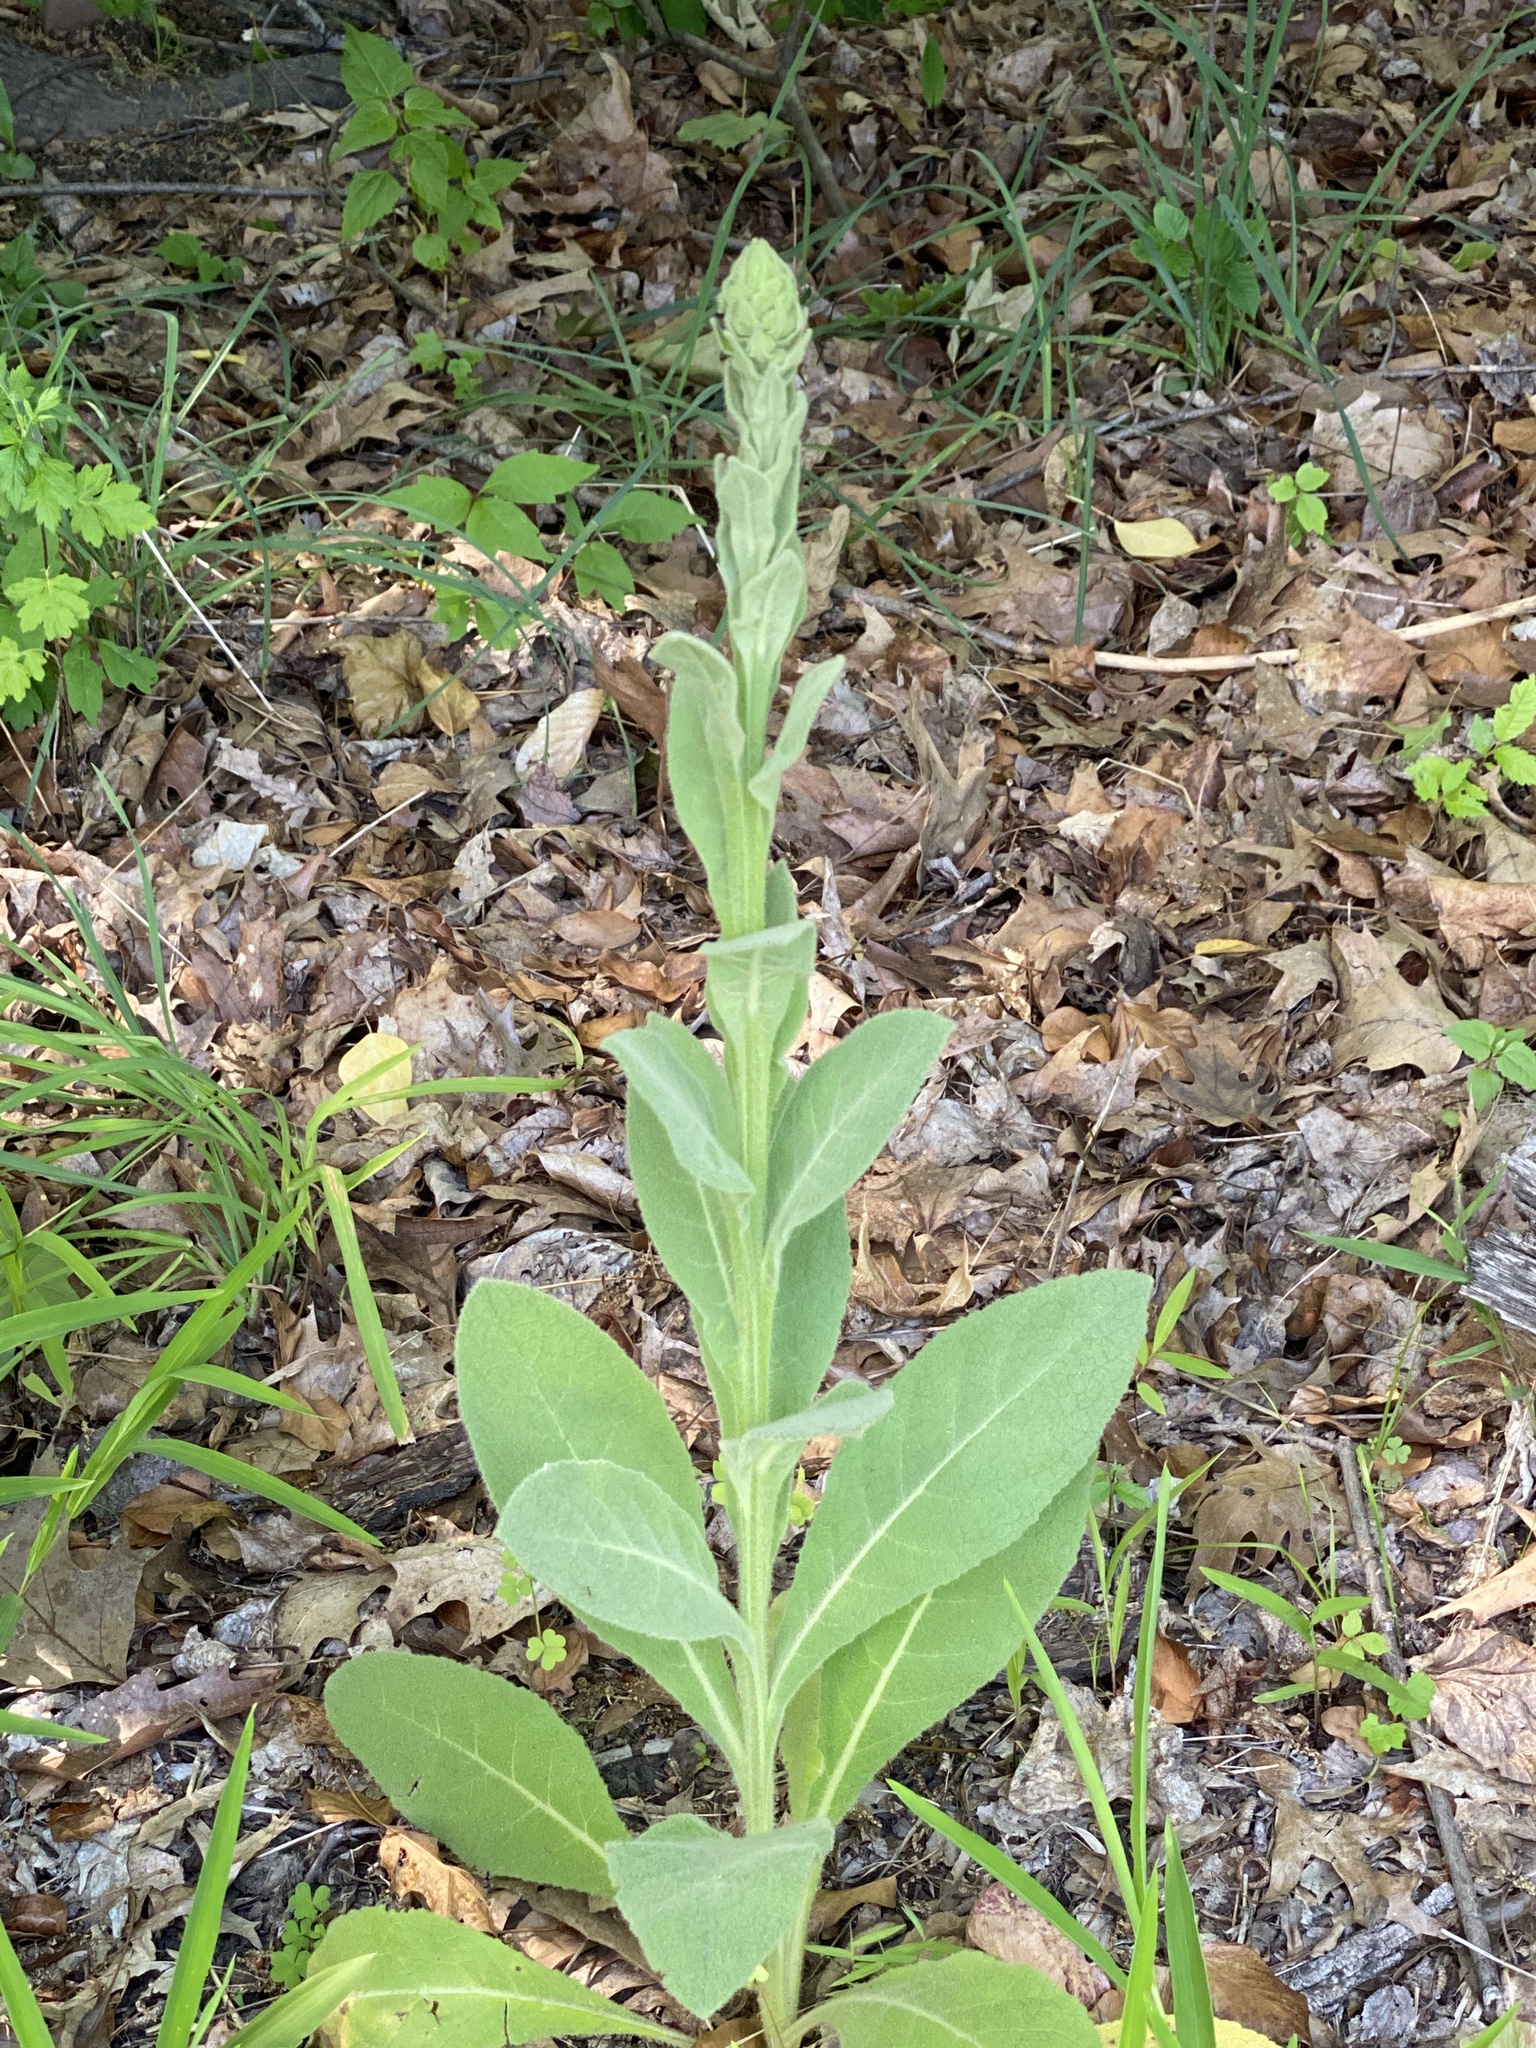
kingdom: Plantae
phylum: Tracheophyta
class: Magnoliopsida
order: Lamiales
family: Scrophulariaceae
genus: Verbascum
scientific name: Verbascum thapsus
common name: Common mullein
